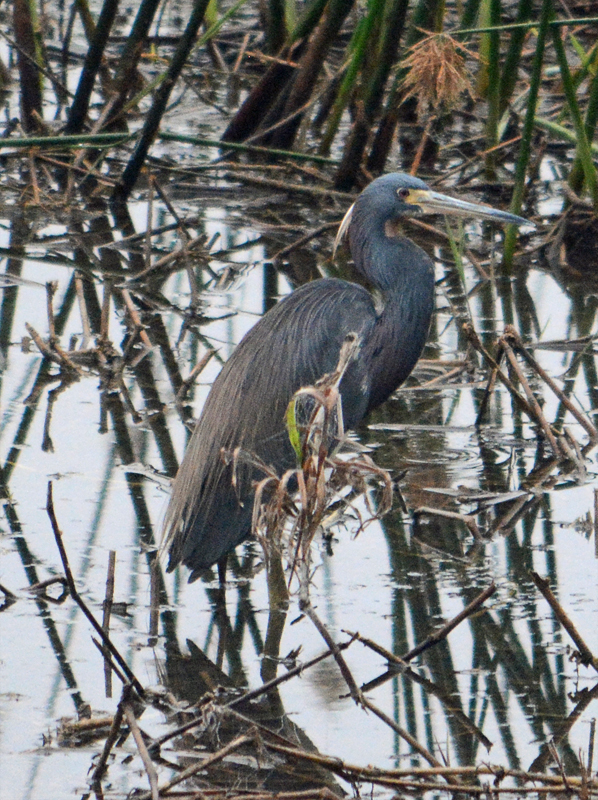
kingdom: Animalia
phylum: Chordata
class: Aves
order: Pelecaniformes
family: Ardeidae
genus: Egretta
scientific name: Egretta tricolor
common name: Tricolored heron
